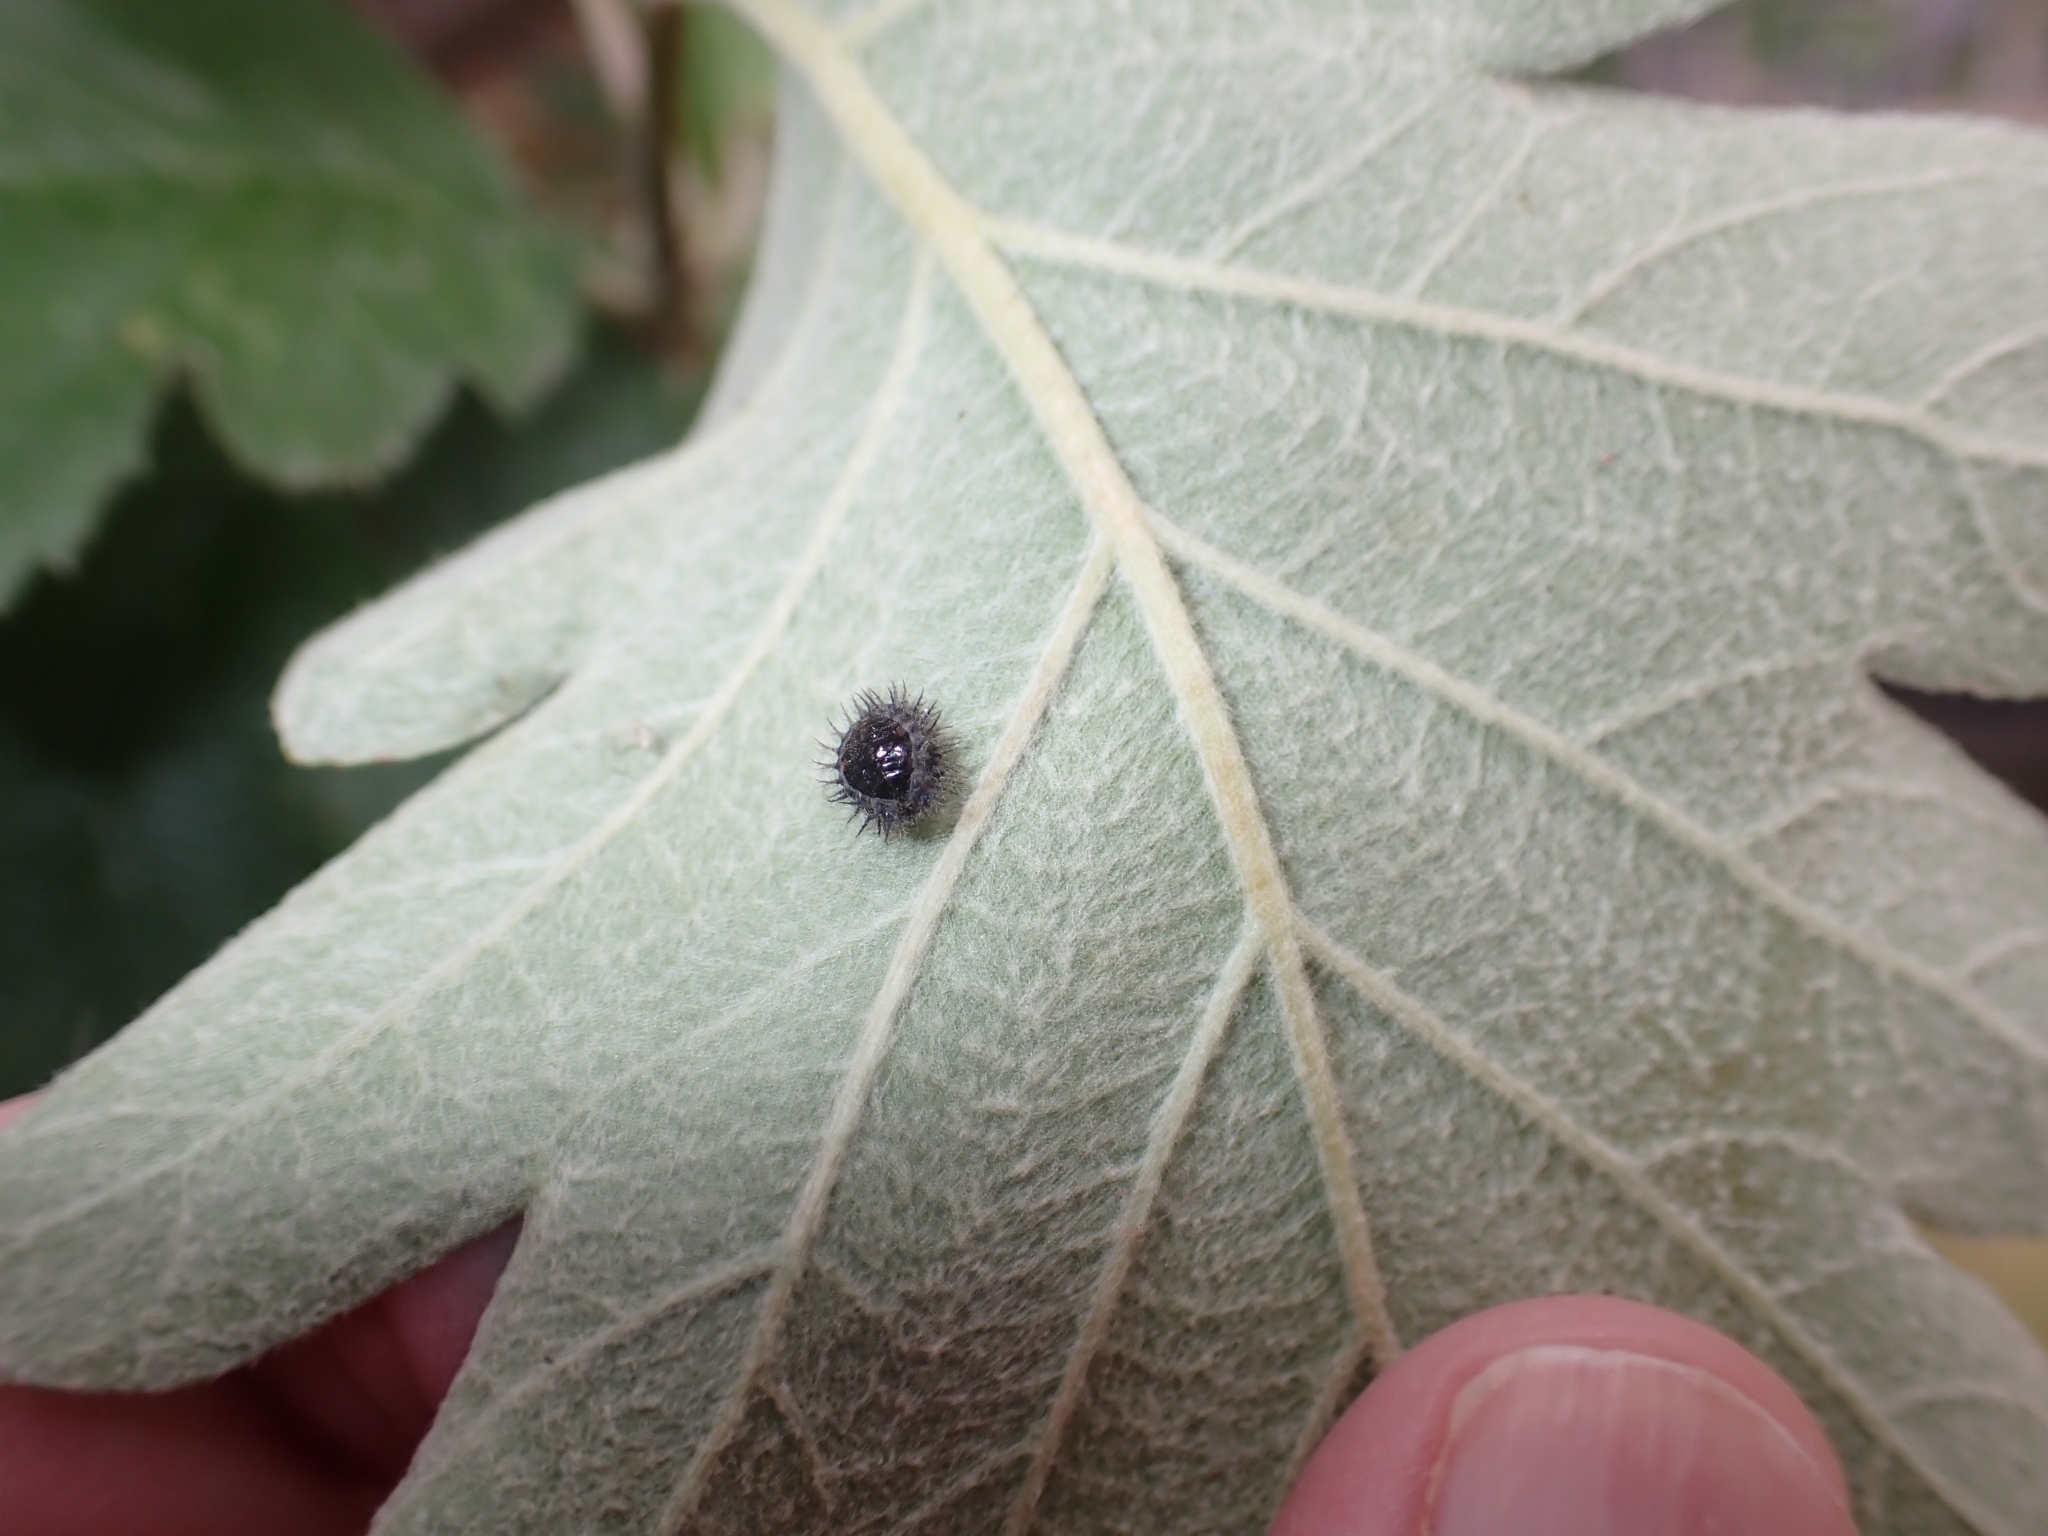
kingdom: Animalia
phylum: Arthropoda
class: Insecta
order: Coleoptera
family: Coccinellidae
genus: Chilocorus
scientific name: Chilocorus renipustulatus
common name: Kidney-spot ladybird
